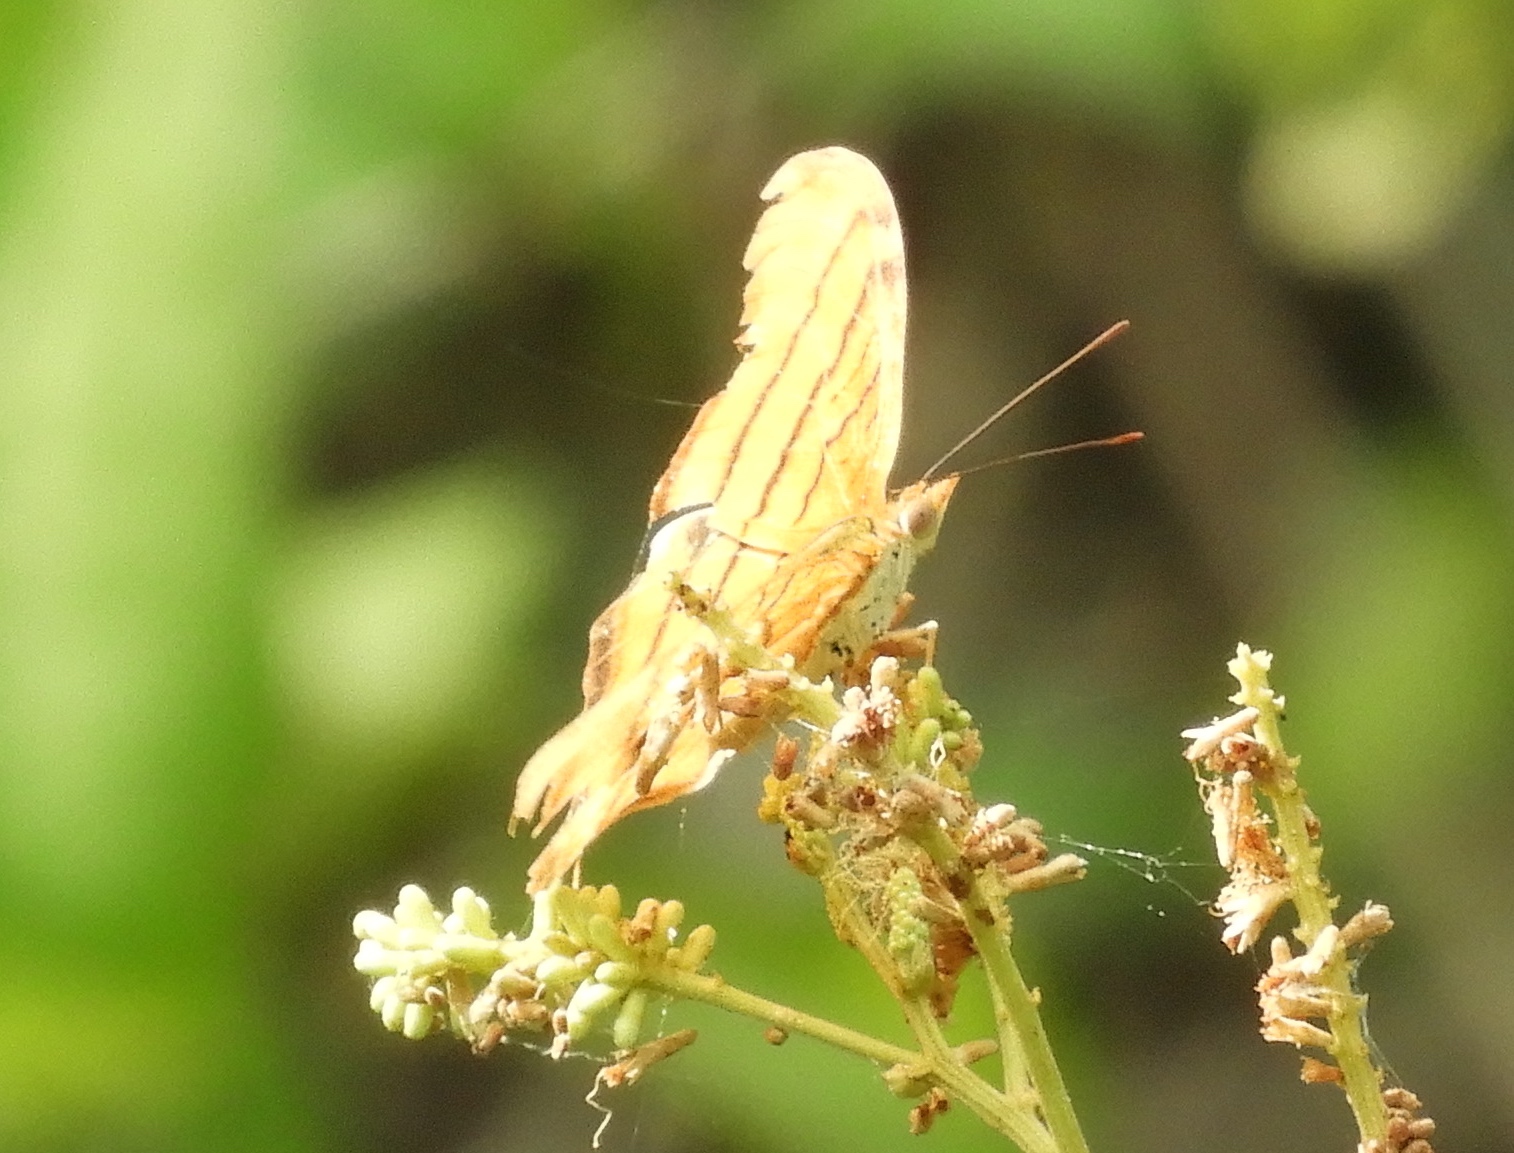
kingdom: Animalia
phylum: Arthropoda
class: Insecta
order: Lepidoptera
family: Nymphalidae
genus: Marpesia
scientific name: Marpesia petreus
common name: Red dagger wing
